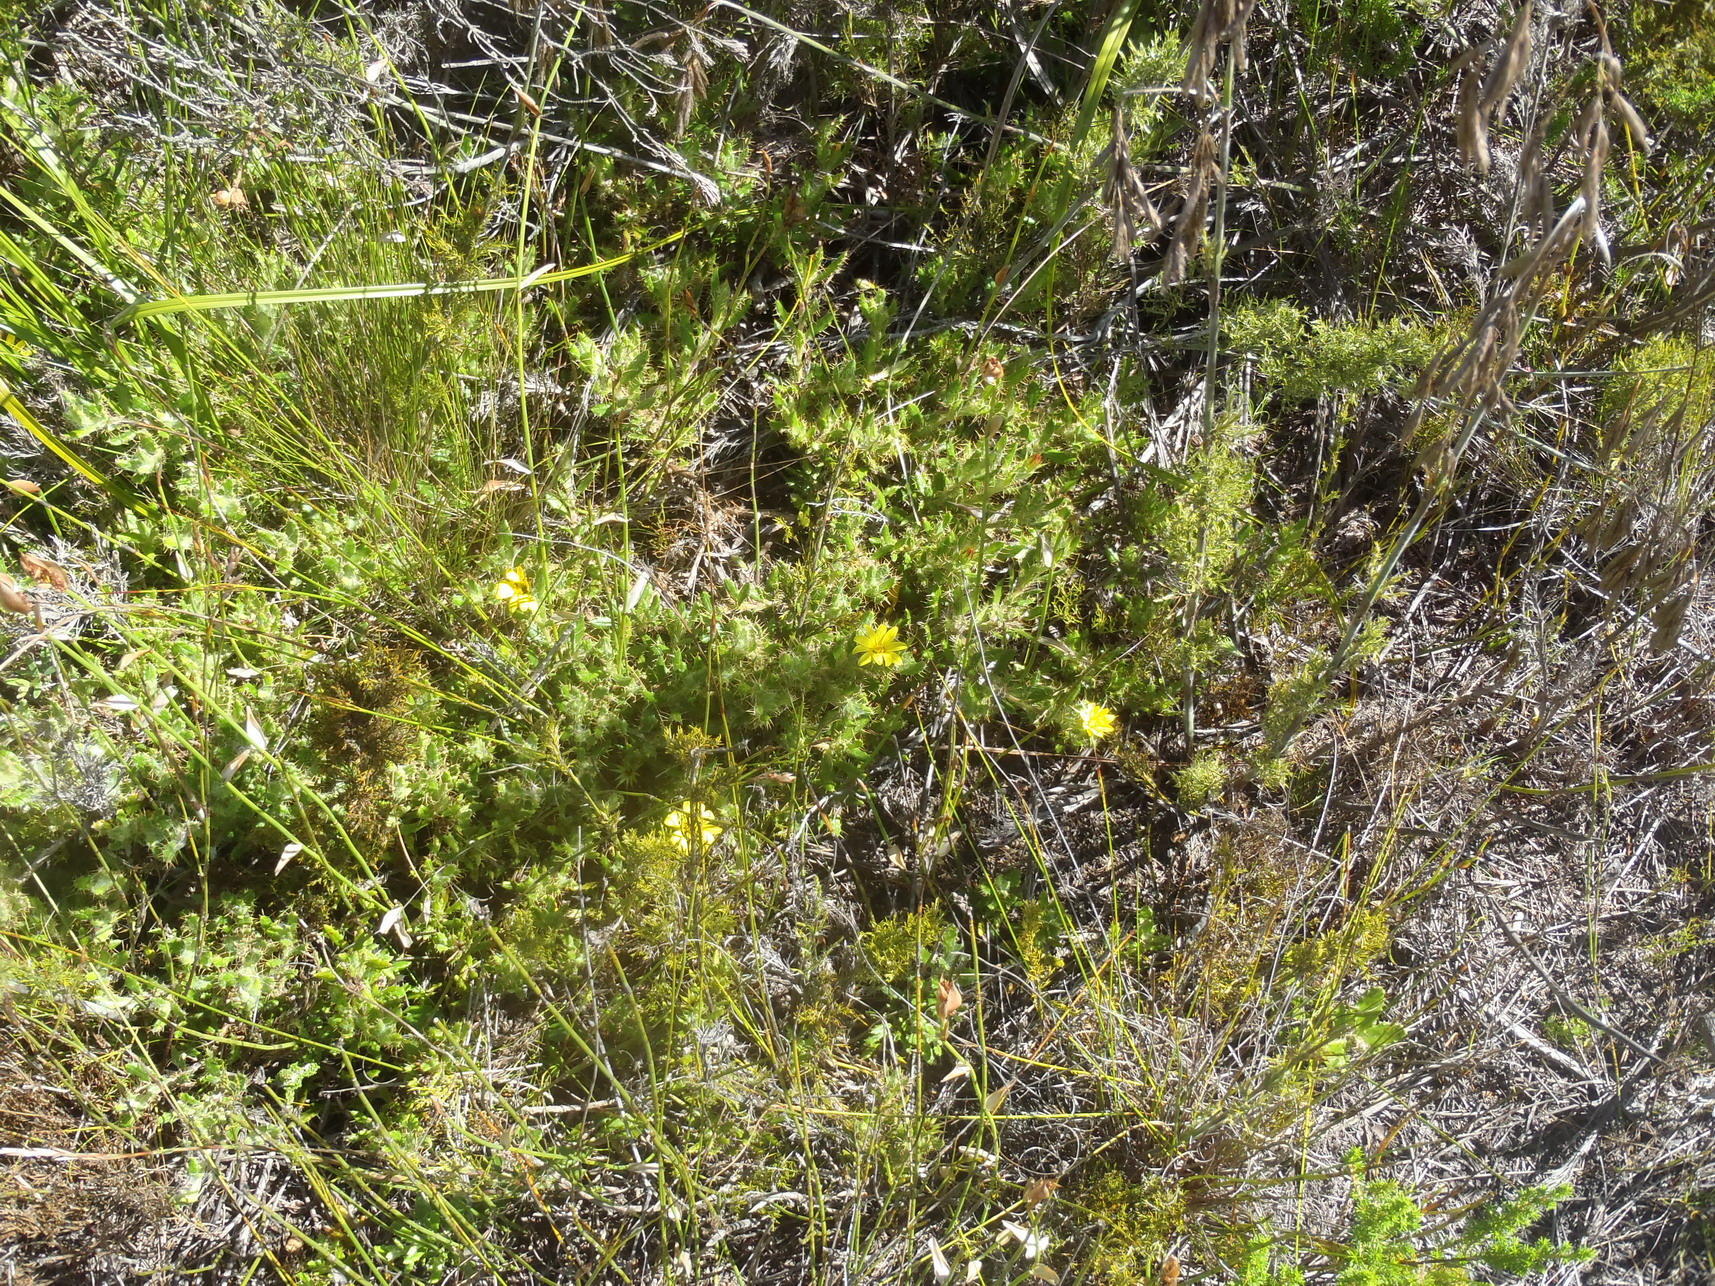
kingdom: Plantae
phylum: Tracheophyta
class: Magnoliopsida
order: Asterales
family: Asteraceae
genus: Cullumia
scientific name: Cullumia aculeata
